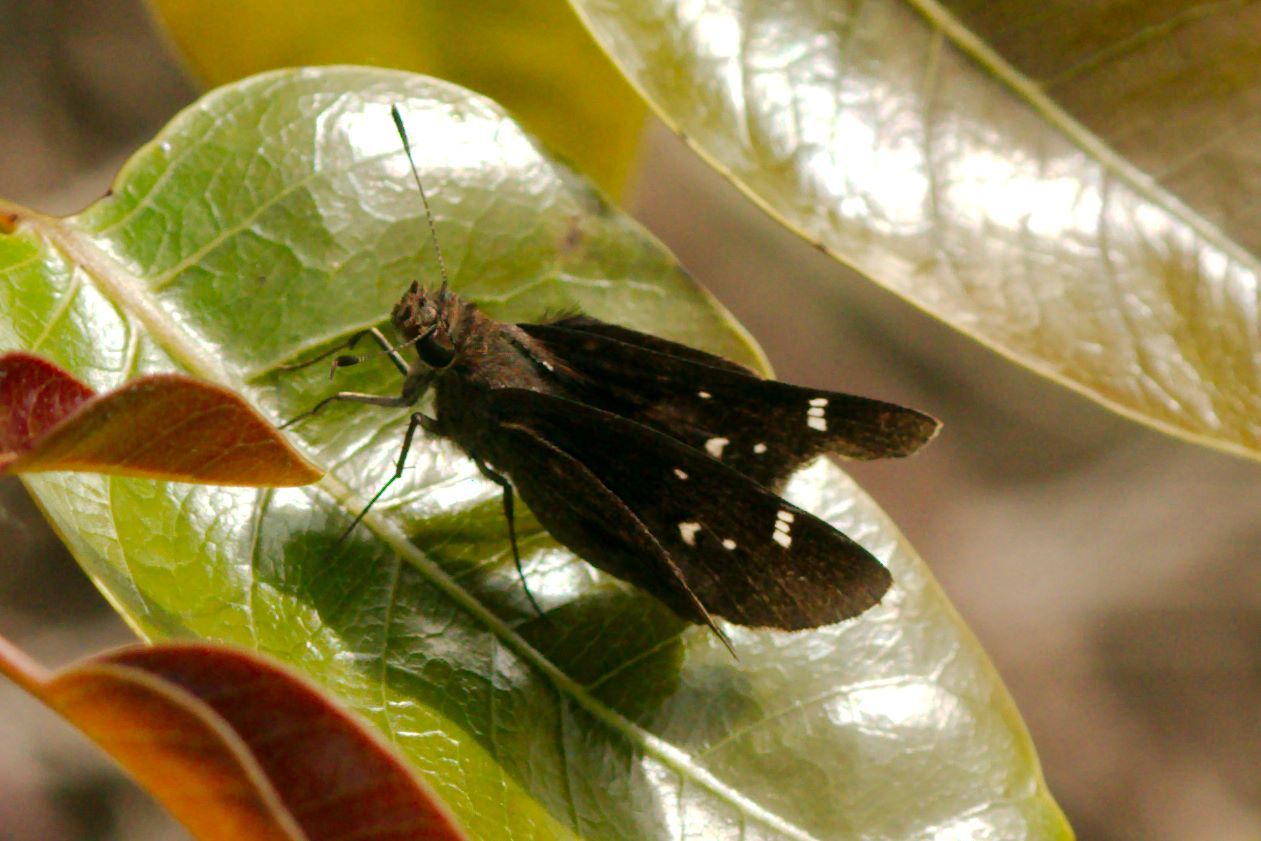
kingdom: Animalia
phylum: Arthropoda
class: Insecta
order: Lepidoptera
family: Hesperiidae
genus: Lerema
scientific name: Lerema accius
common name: Clouded skipper
